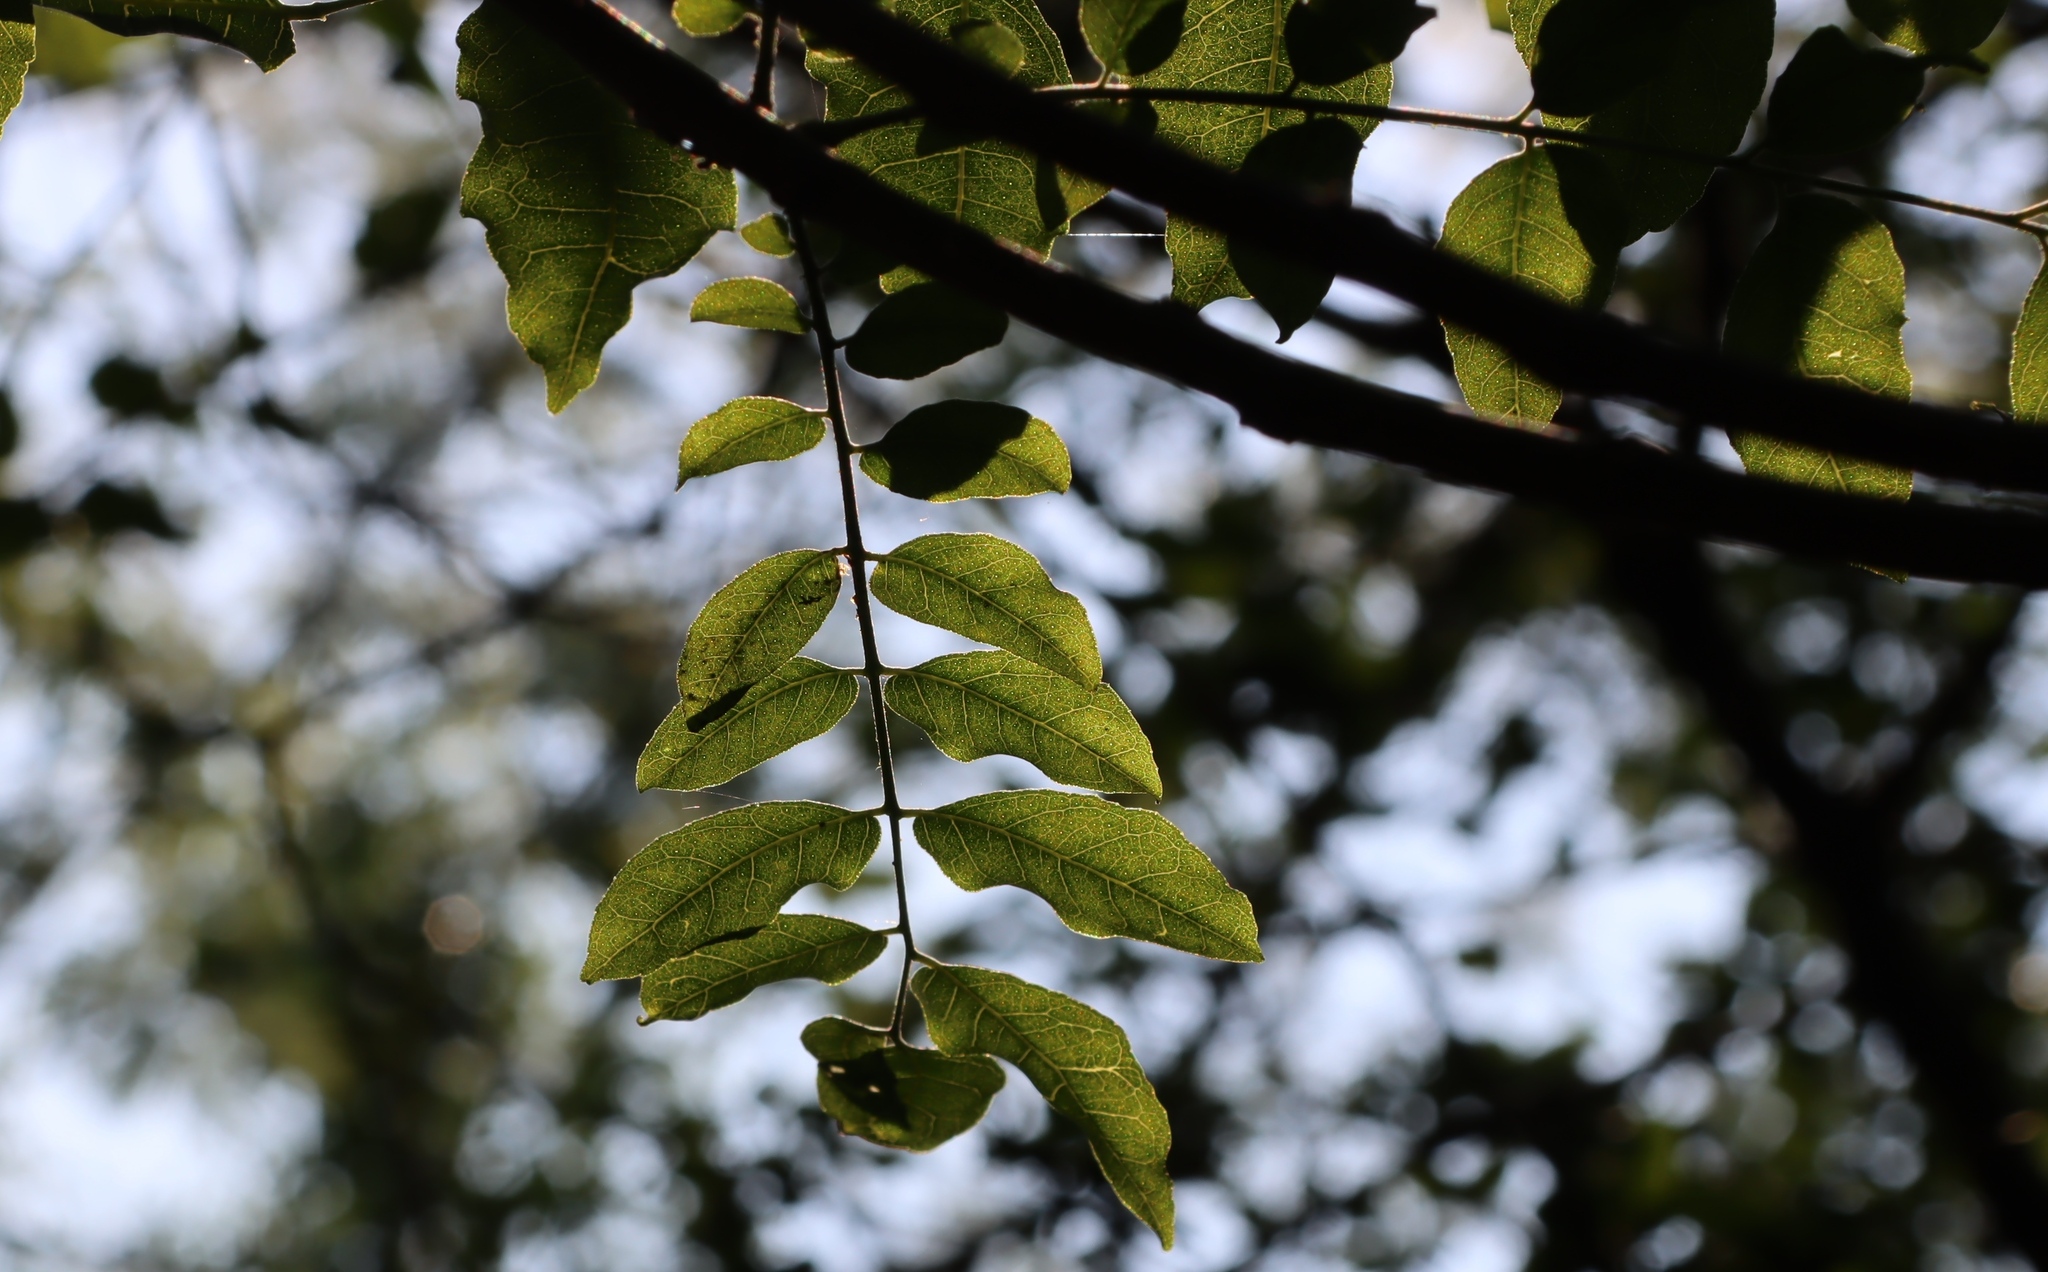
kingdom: Plantae
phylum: Tracheophyta
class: Magnoliopsida
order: Sapindales
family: Rutaceae
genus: Clausena
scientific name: Clausena anisata
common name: Horsewood
